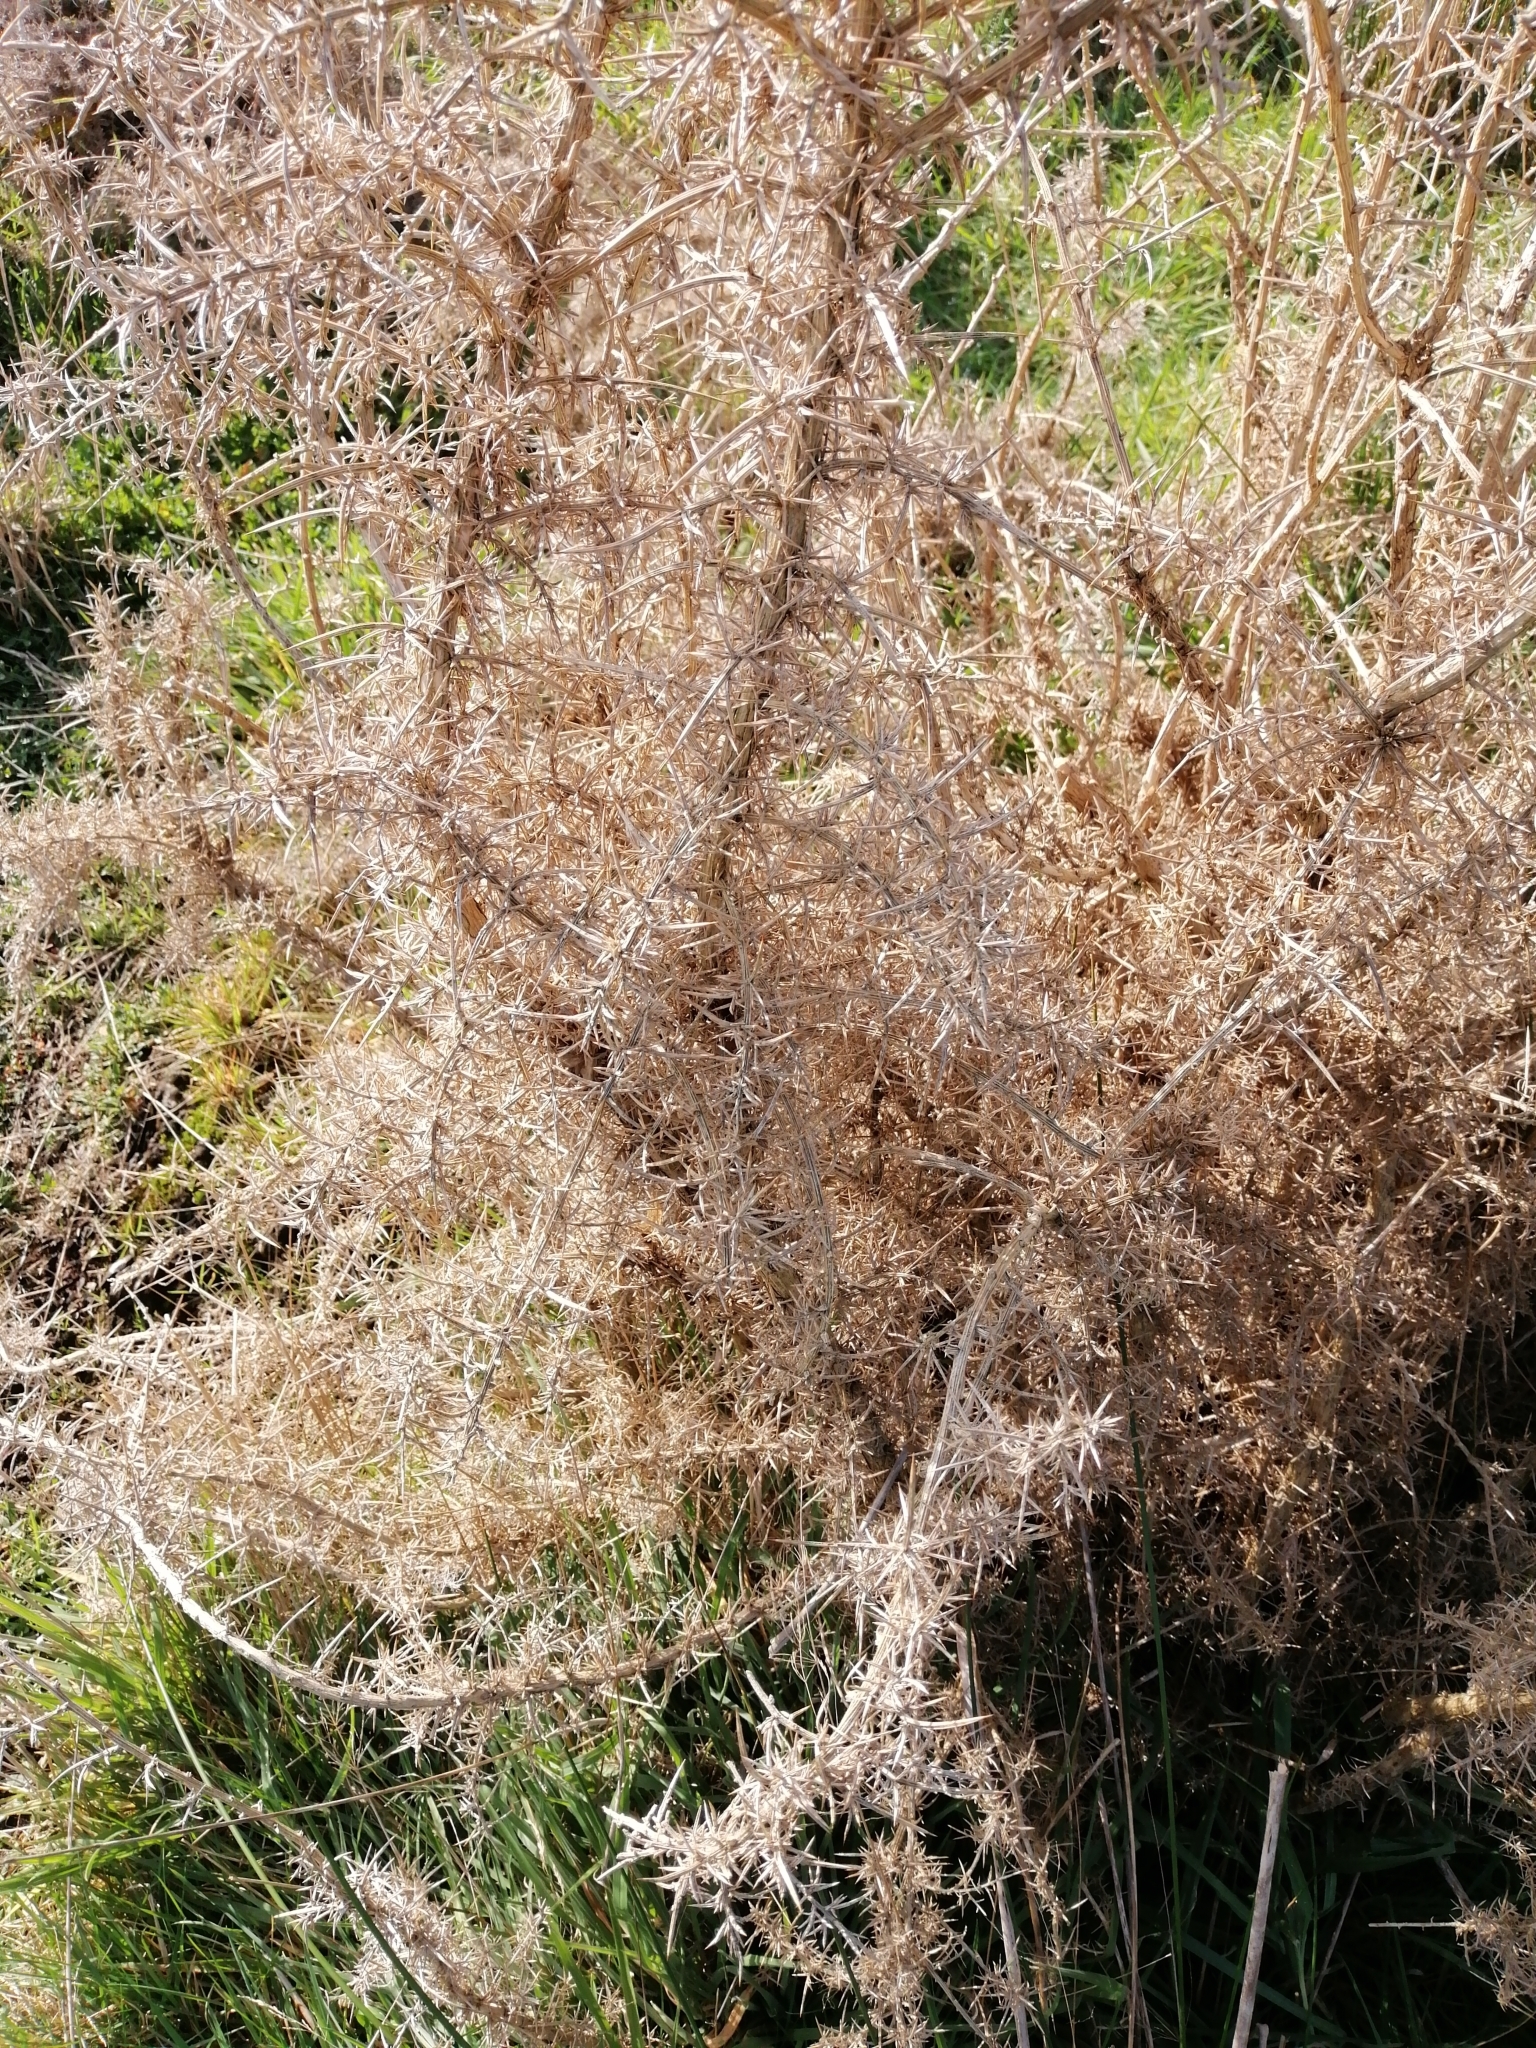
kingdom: Plantae
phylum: Tracheophyta
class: Magnoliopsida
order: Fabales
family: Fabaceae
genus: Ulex
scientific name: Ulex europaeus
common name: Common gorse
